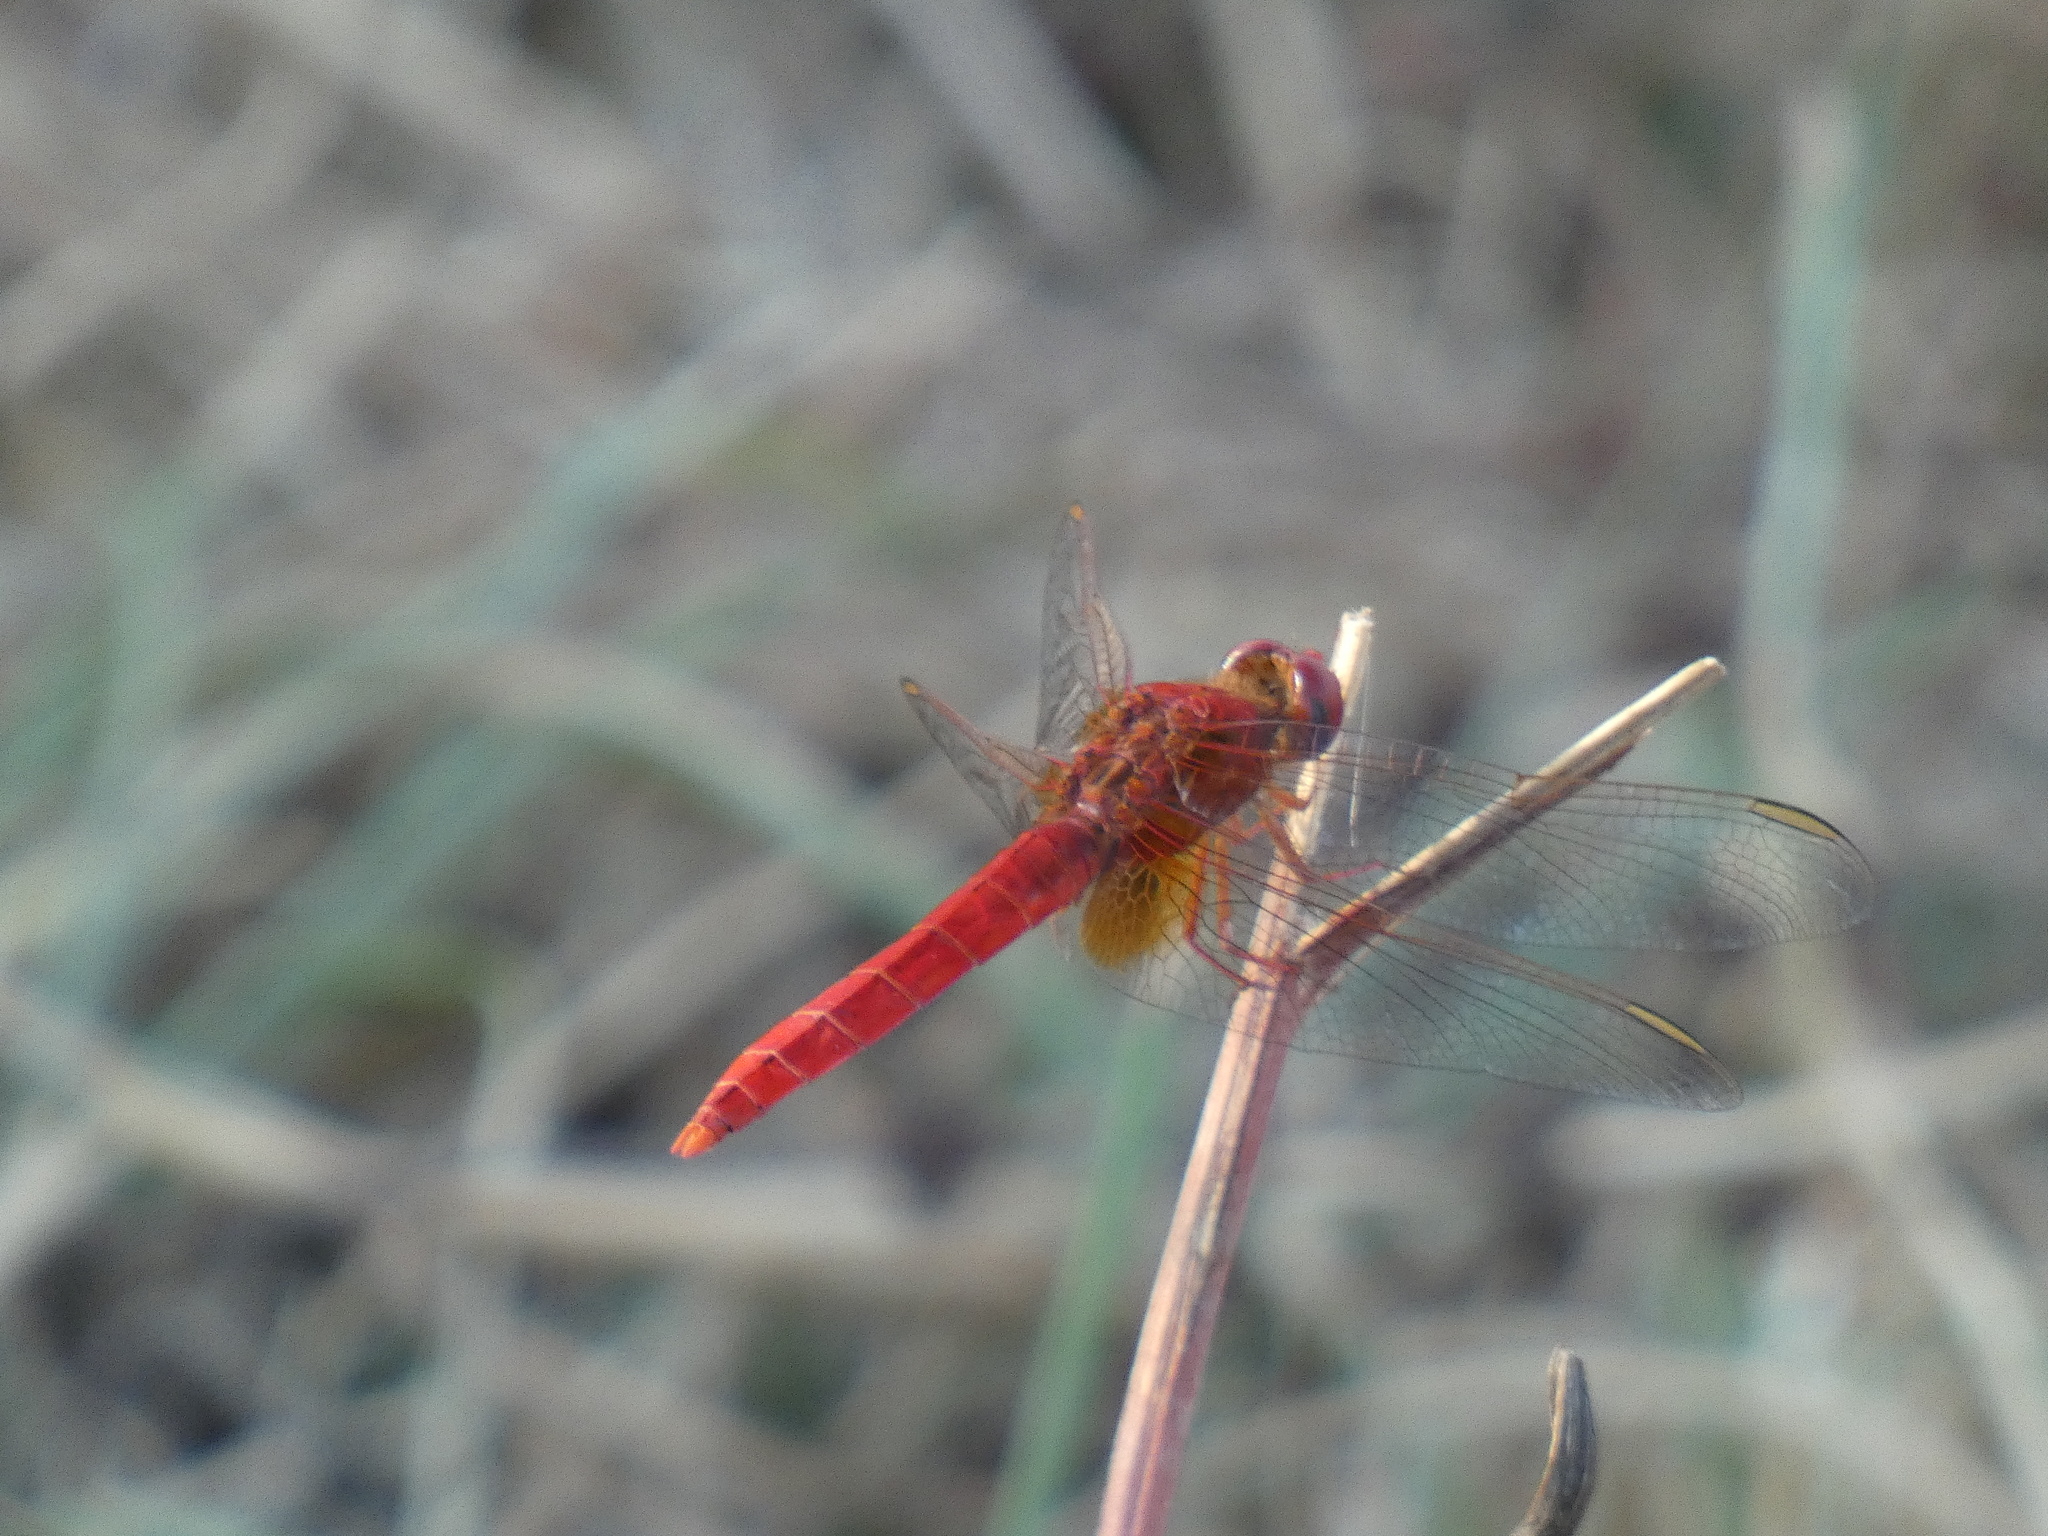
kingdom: Animalia
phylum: Arthropoda
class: Insecta
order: Odonata
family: Libellulidae
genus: Crocothemis
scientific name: Crocothemis erythraea
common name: Scarlet dragonfly
